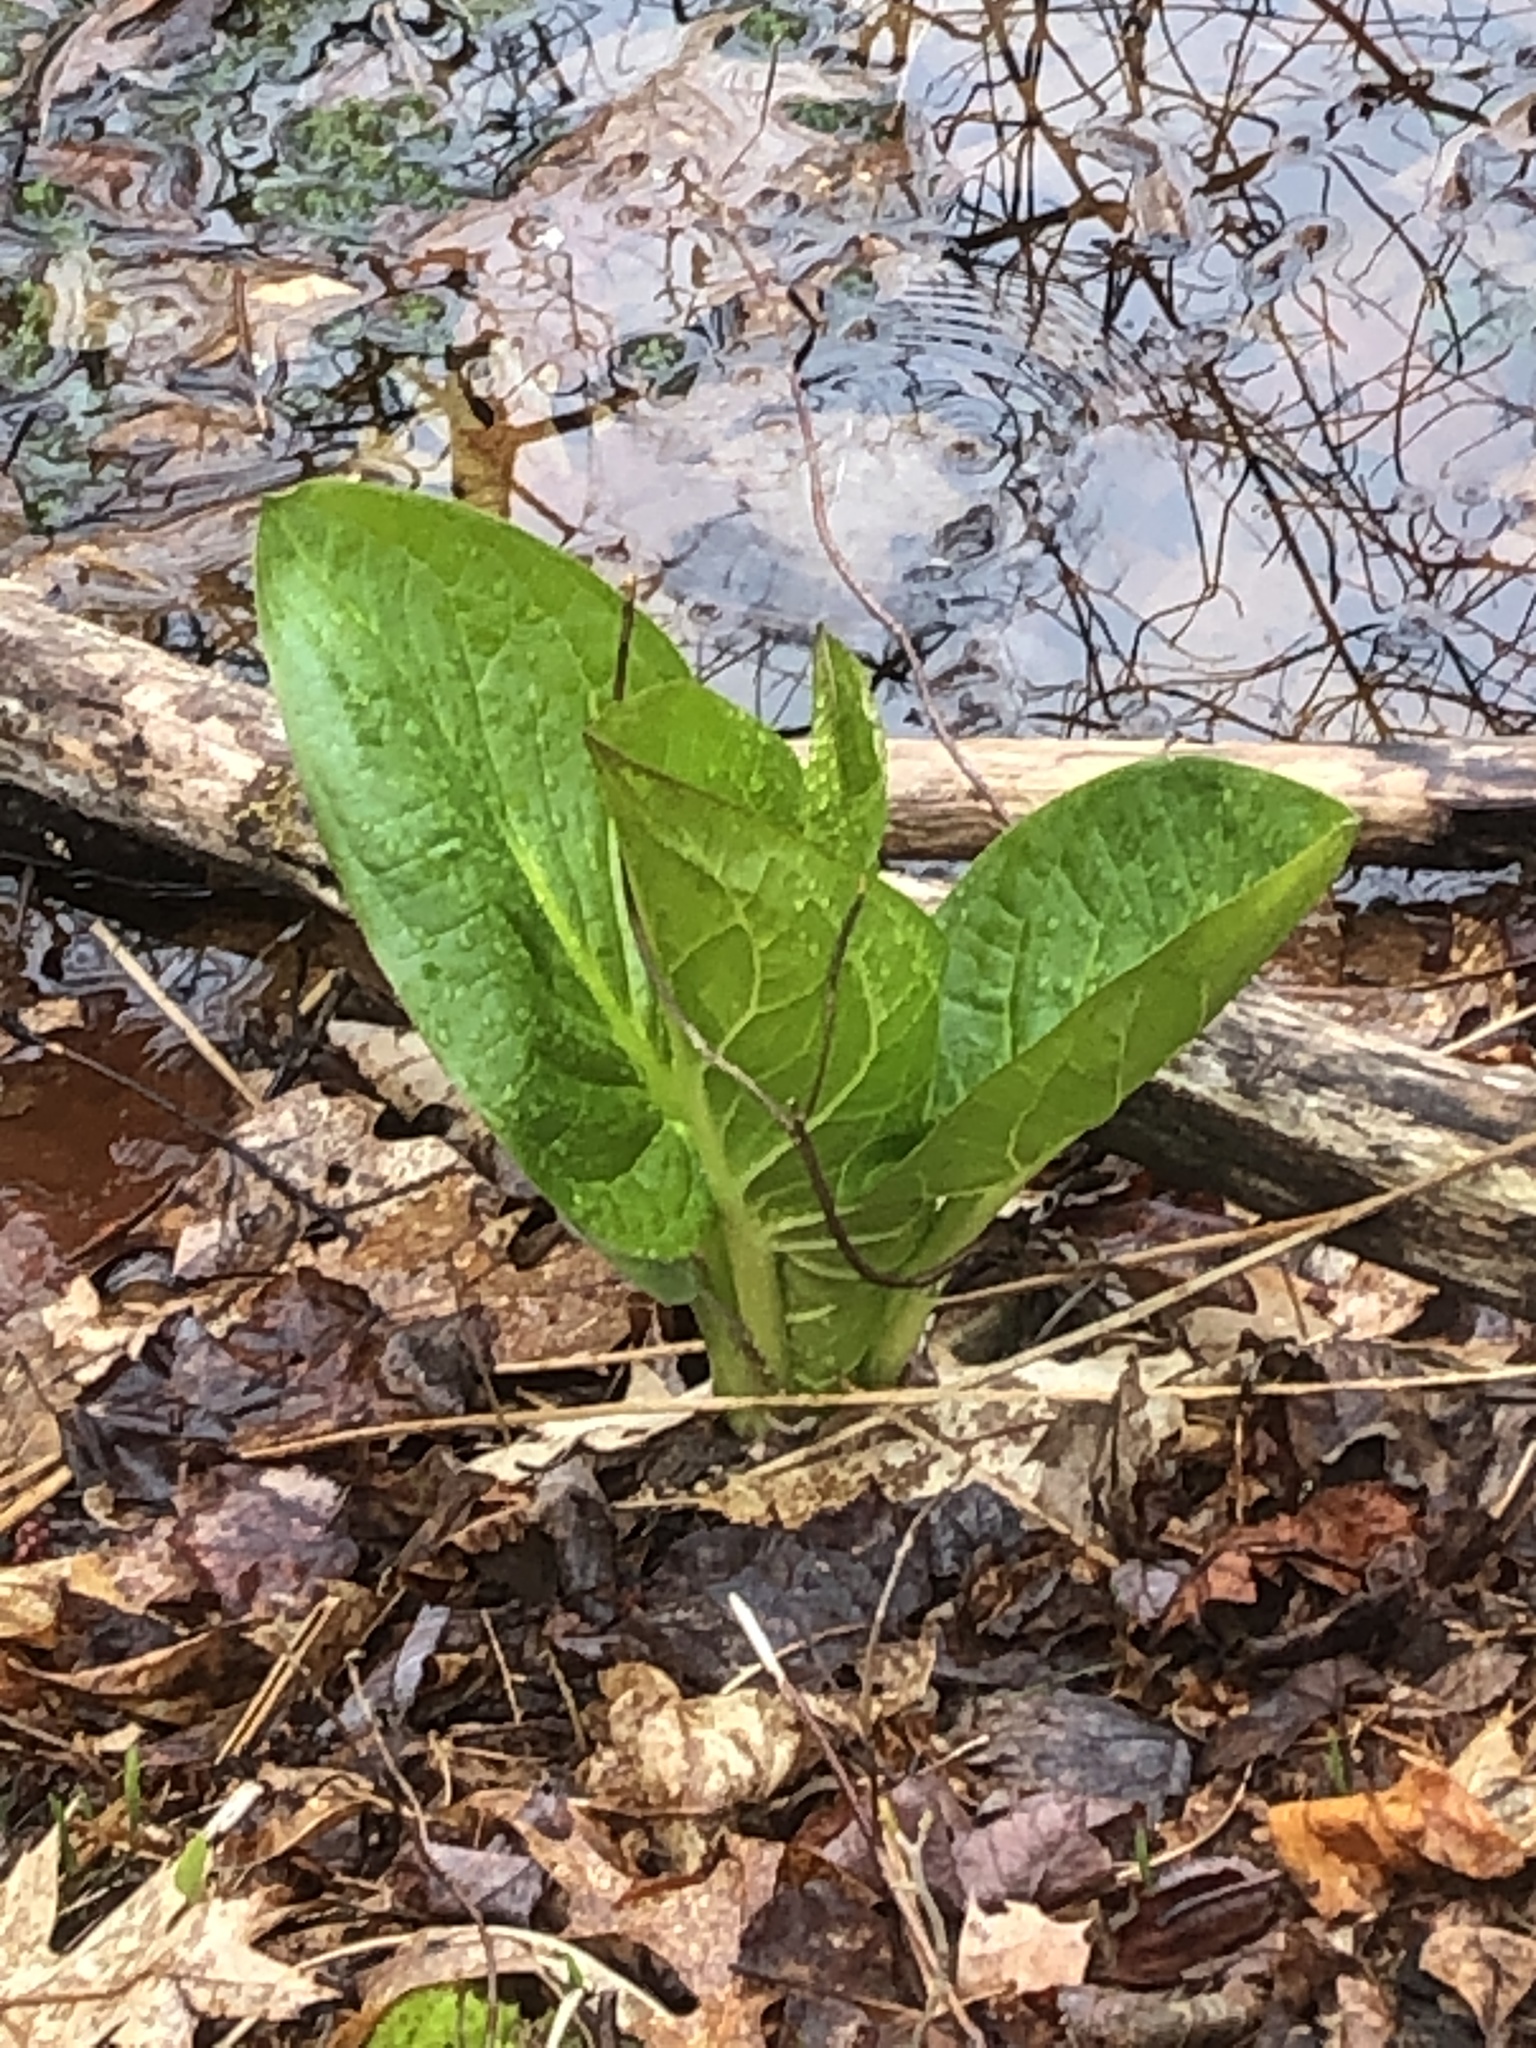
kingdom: Plantae
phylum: Tracheophyta
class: Liliopsida
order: Alismatales
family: Araceae
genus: Symplocarpus
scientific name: Symplocarpus foetidus
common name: Eastern skunk cabbage
